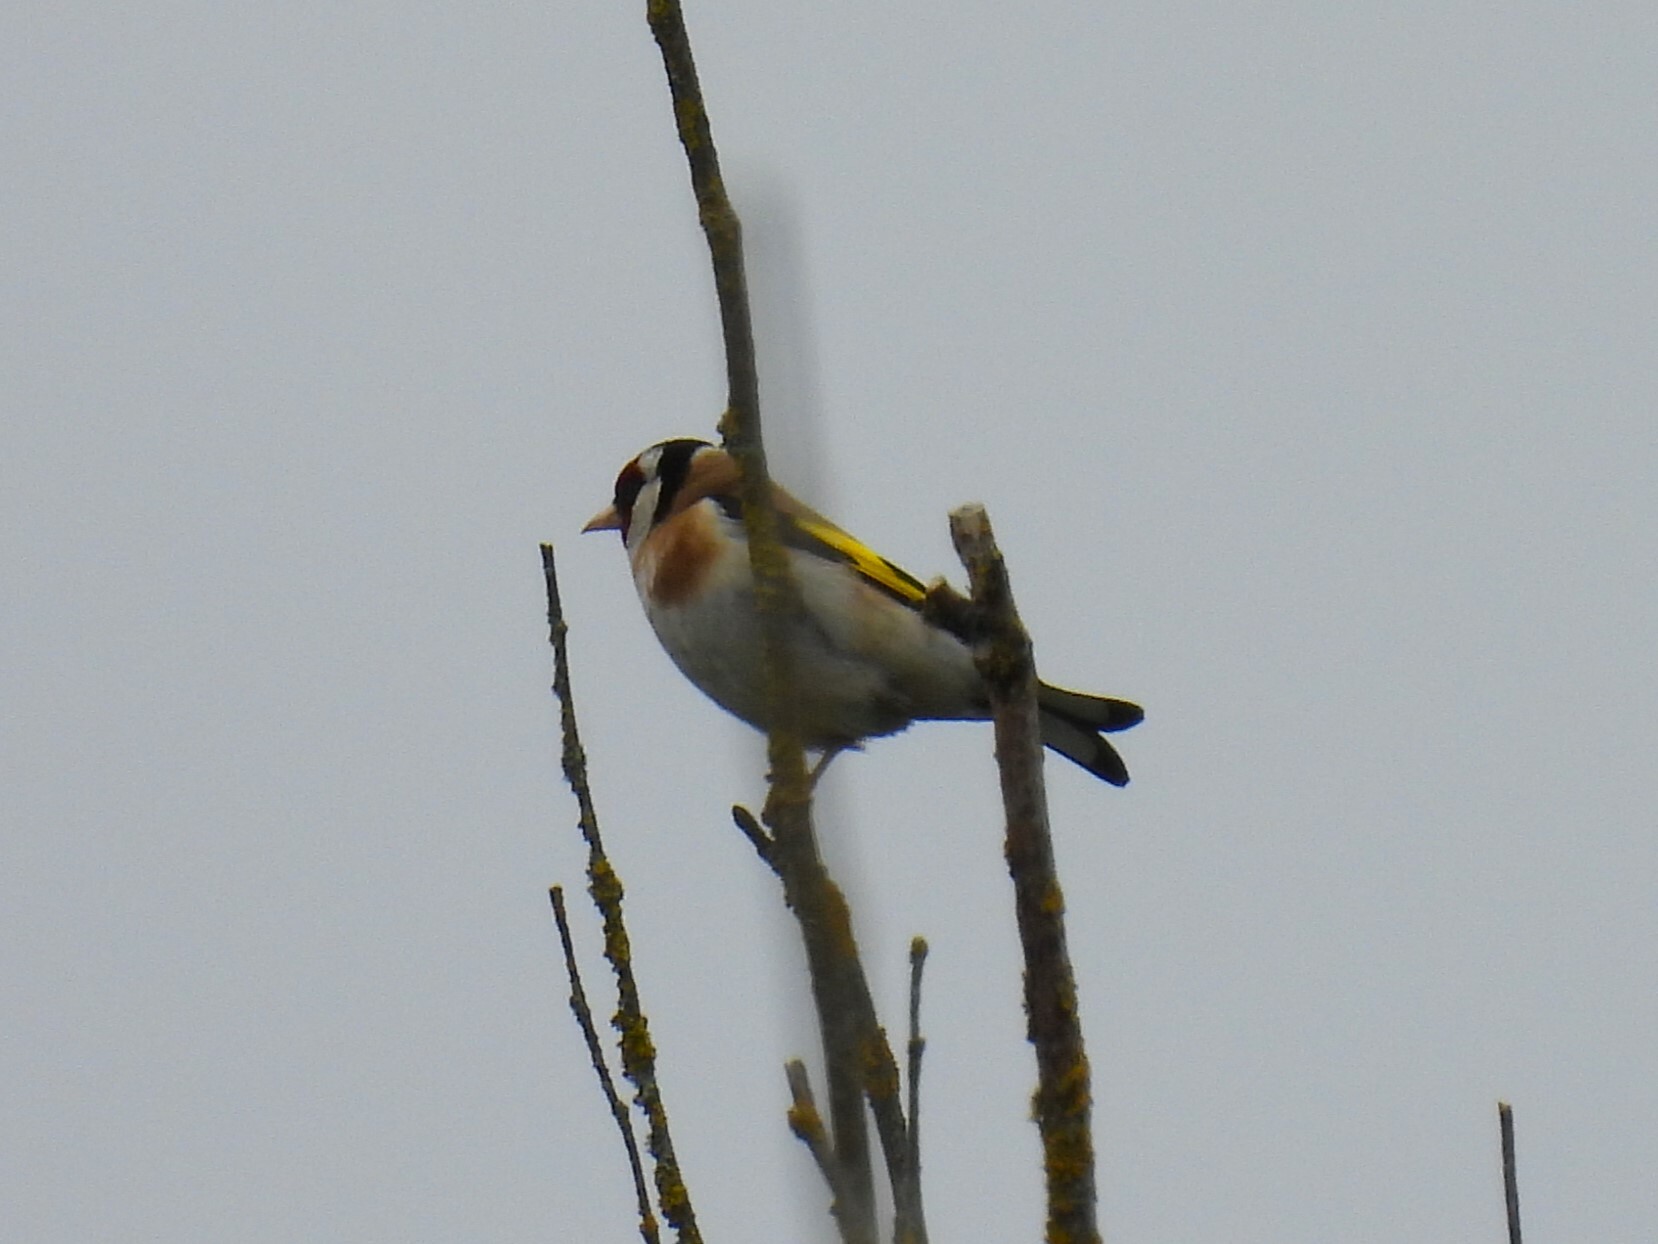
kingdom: Animalia
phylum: Chordata
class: Aves
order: Passeriformes
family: Fringillidae
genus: Carduelis
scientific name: Carduelis carduelis
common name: European goldfinch
